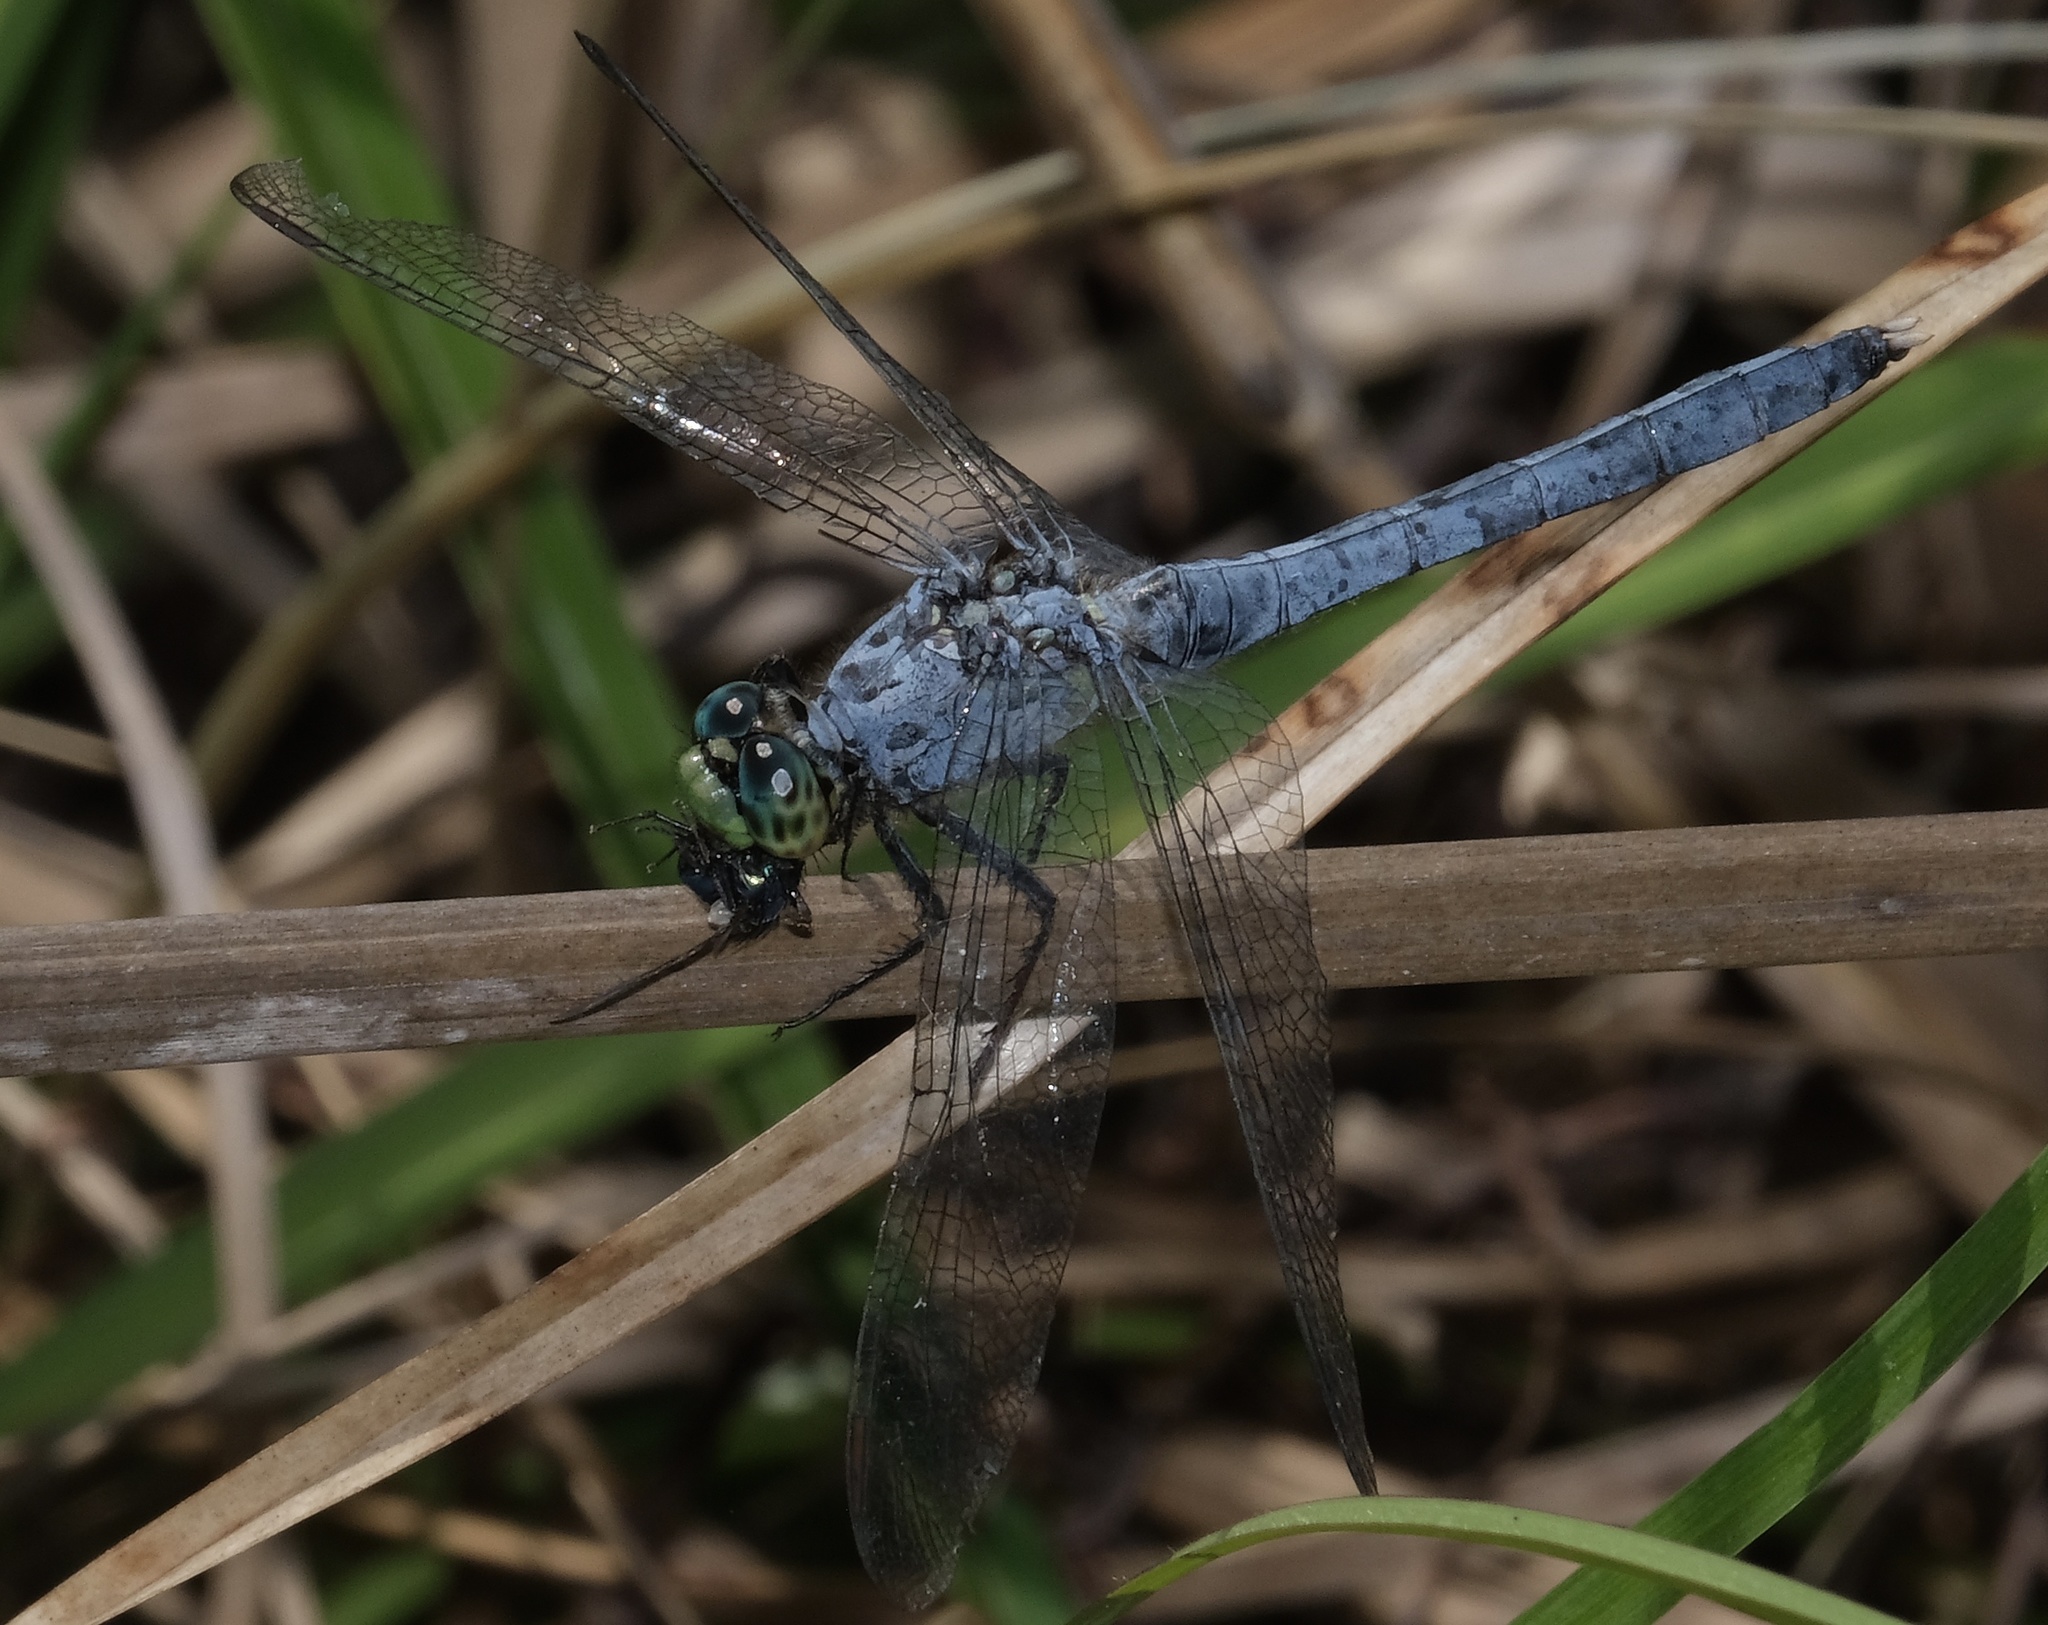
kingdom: Animalia
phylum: Arthropoda
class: Insecta
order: Odonata
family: Libellulidae
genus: Erythemis
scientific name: Erythemis simplicicollis
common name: Eastern pondhawk
